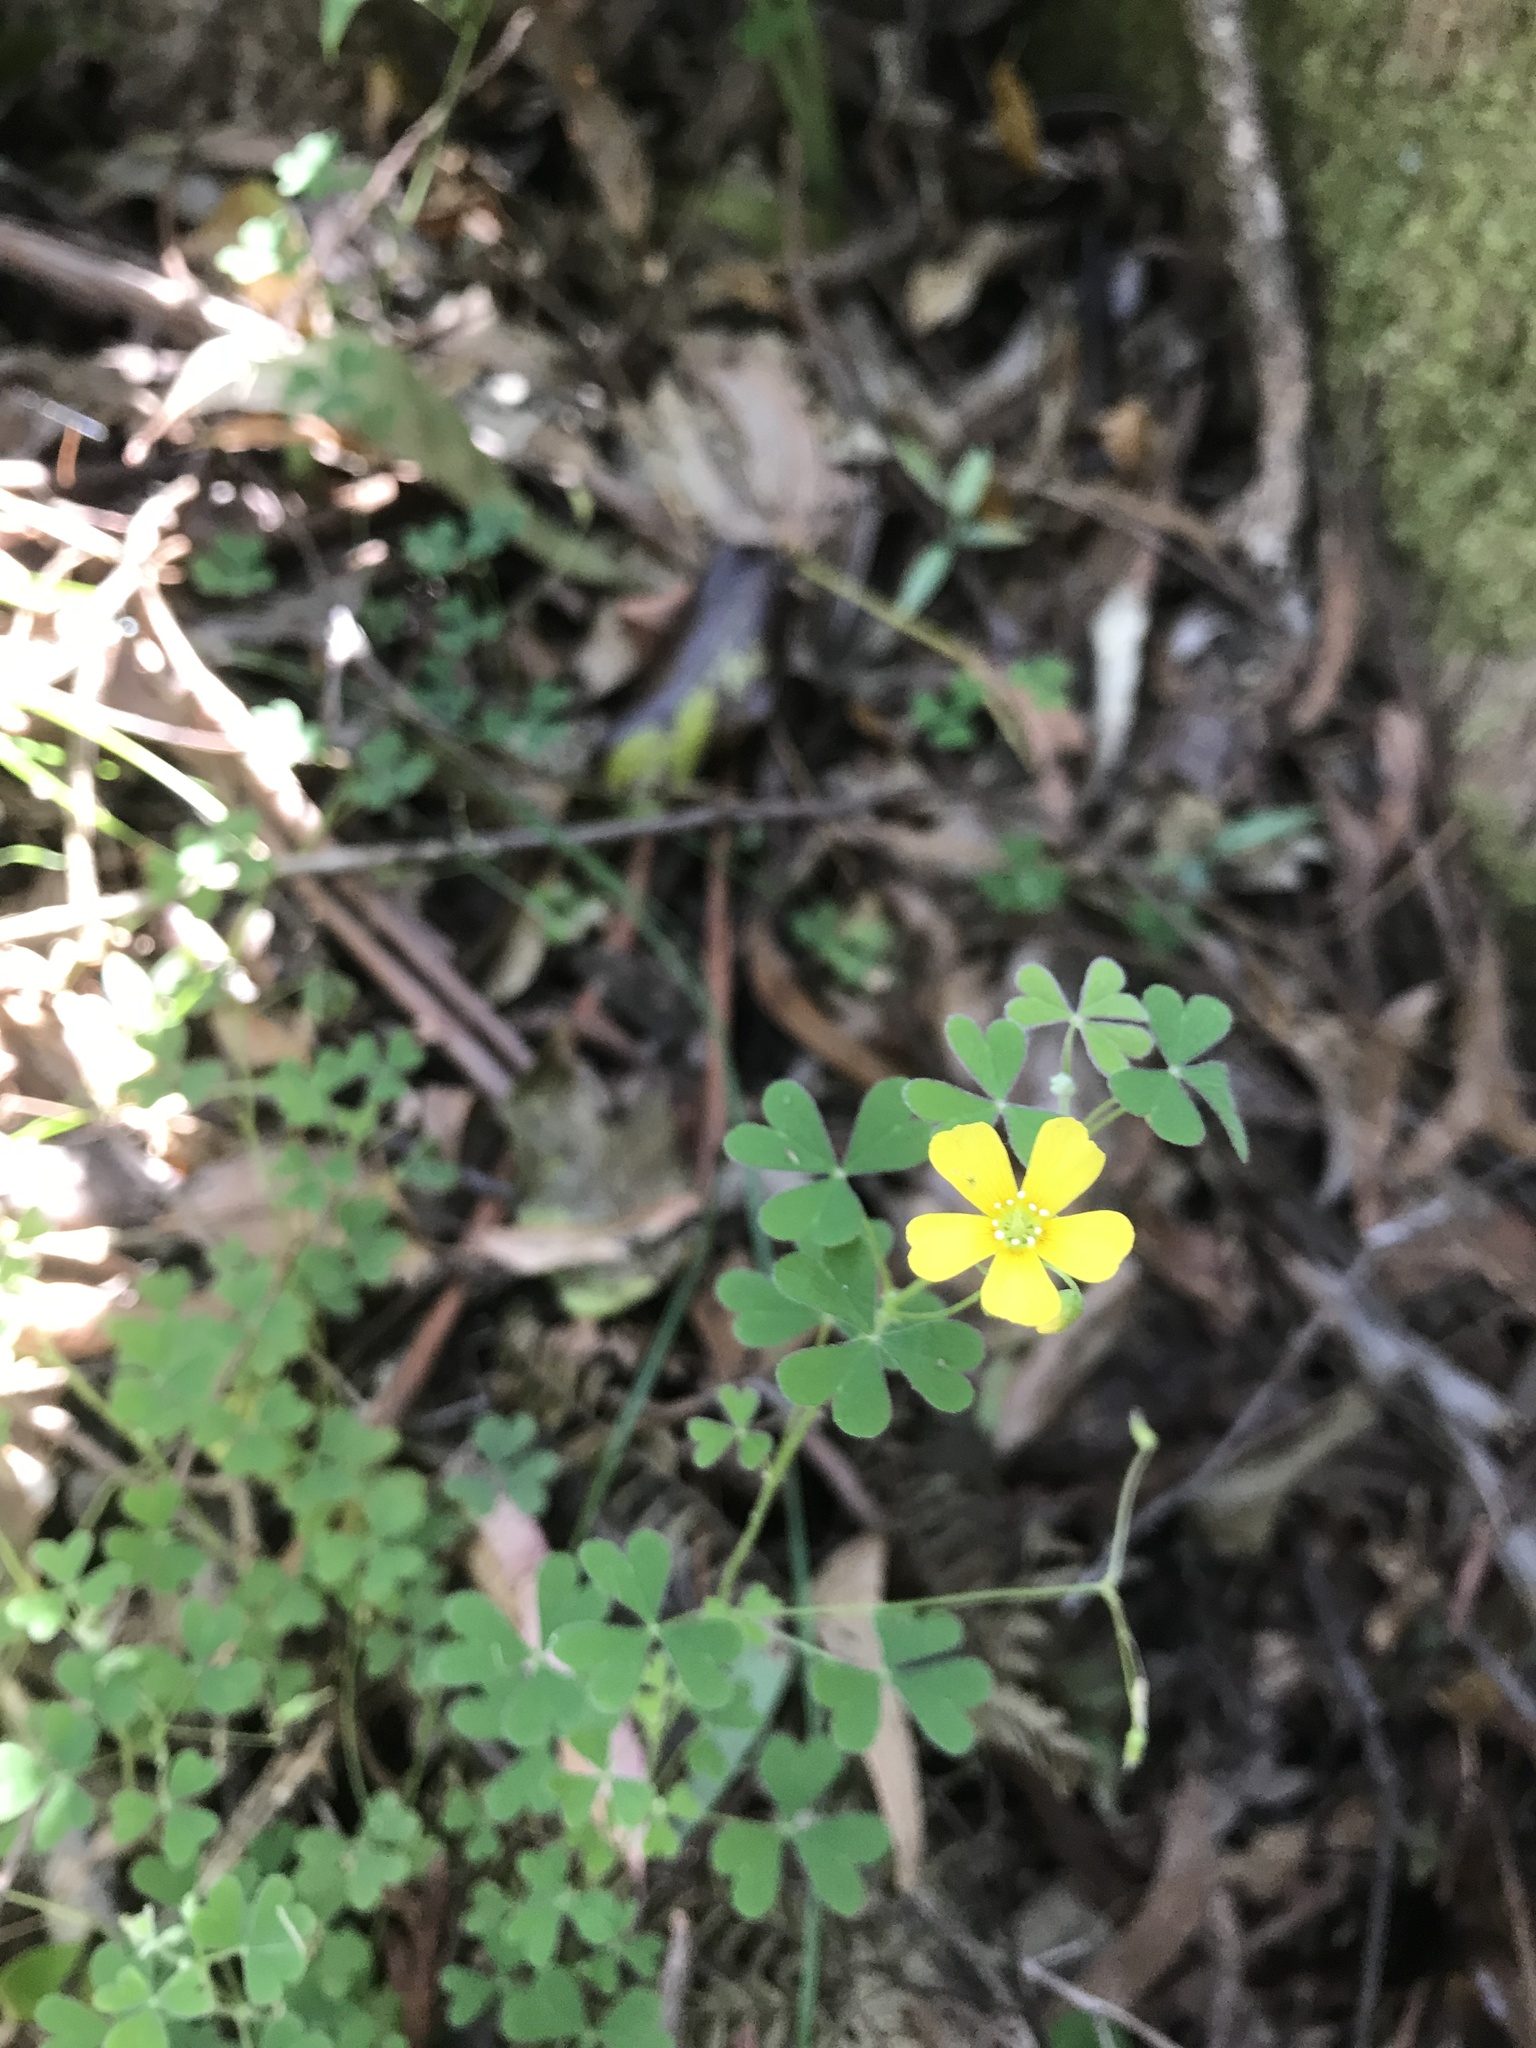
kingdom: Plantae
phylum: Tracheophyta
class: Magnoliopsida
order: Oxalidales
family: Oxalidaceae
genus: Oxalis
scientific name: Oxalis corniculata
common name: Procumbent yellow-sorrel
